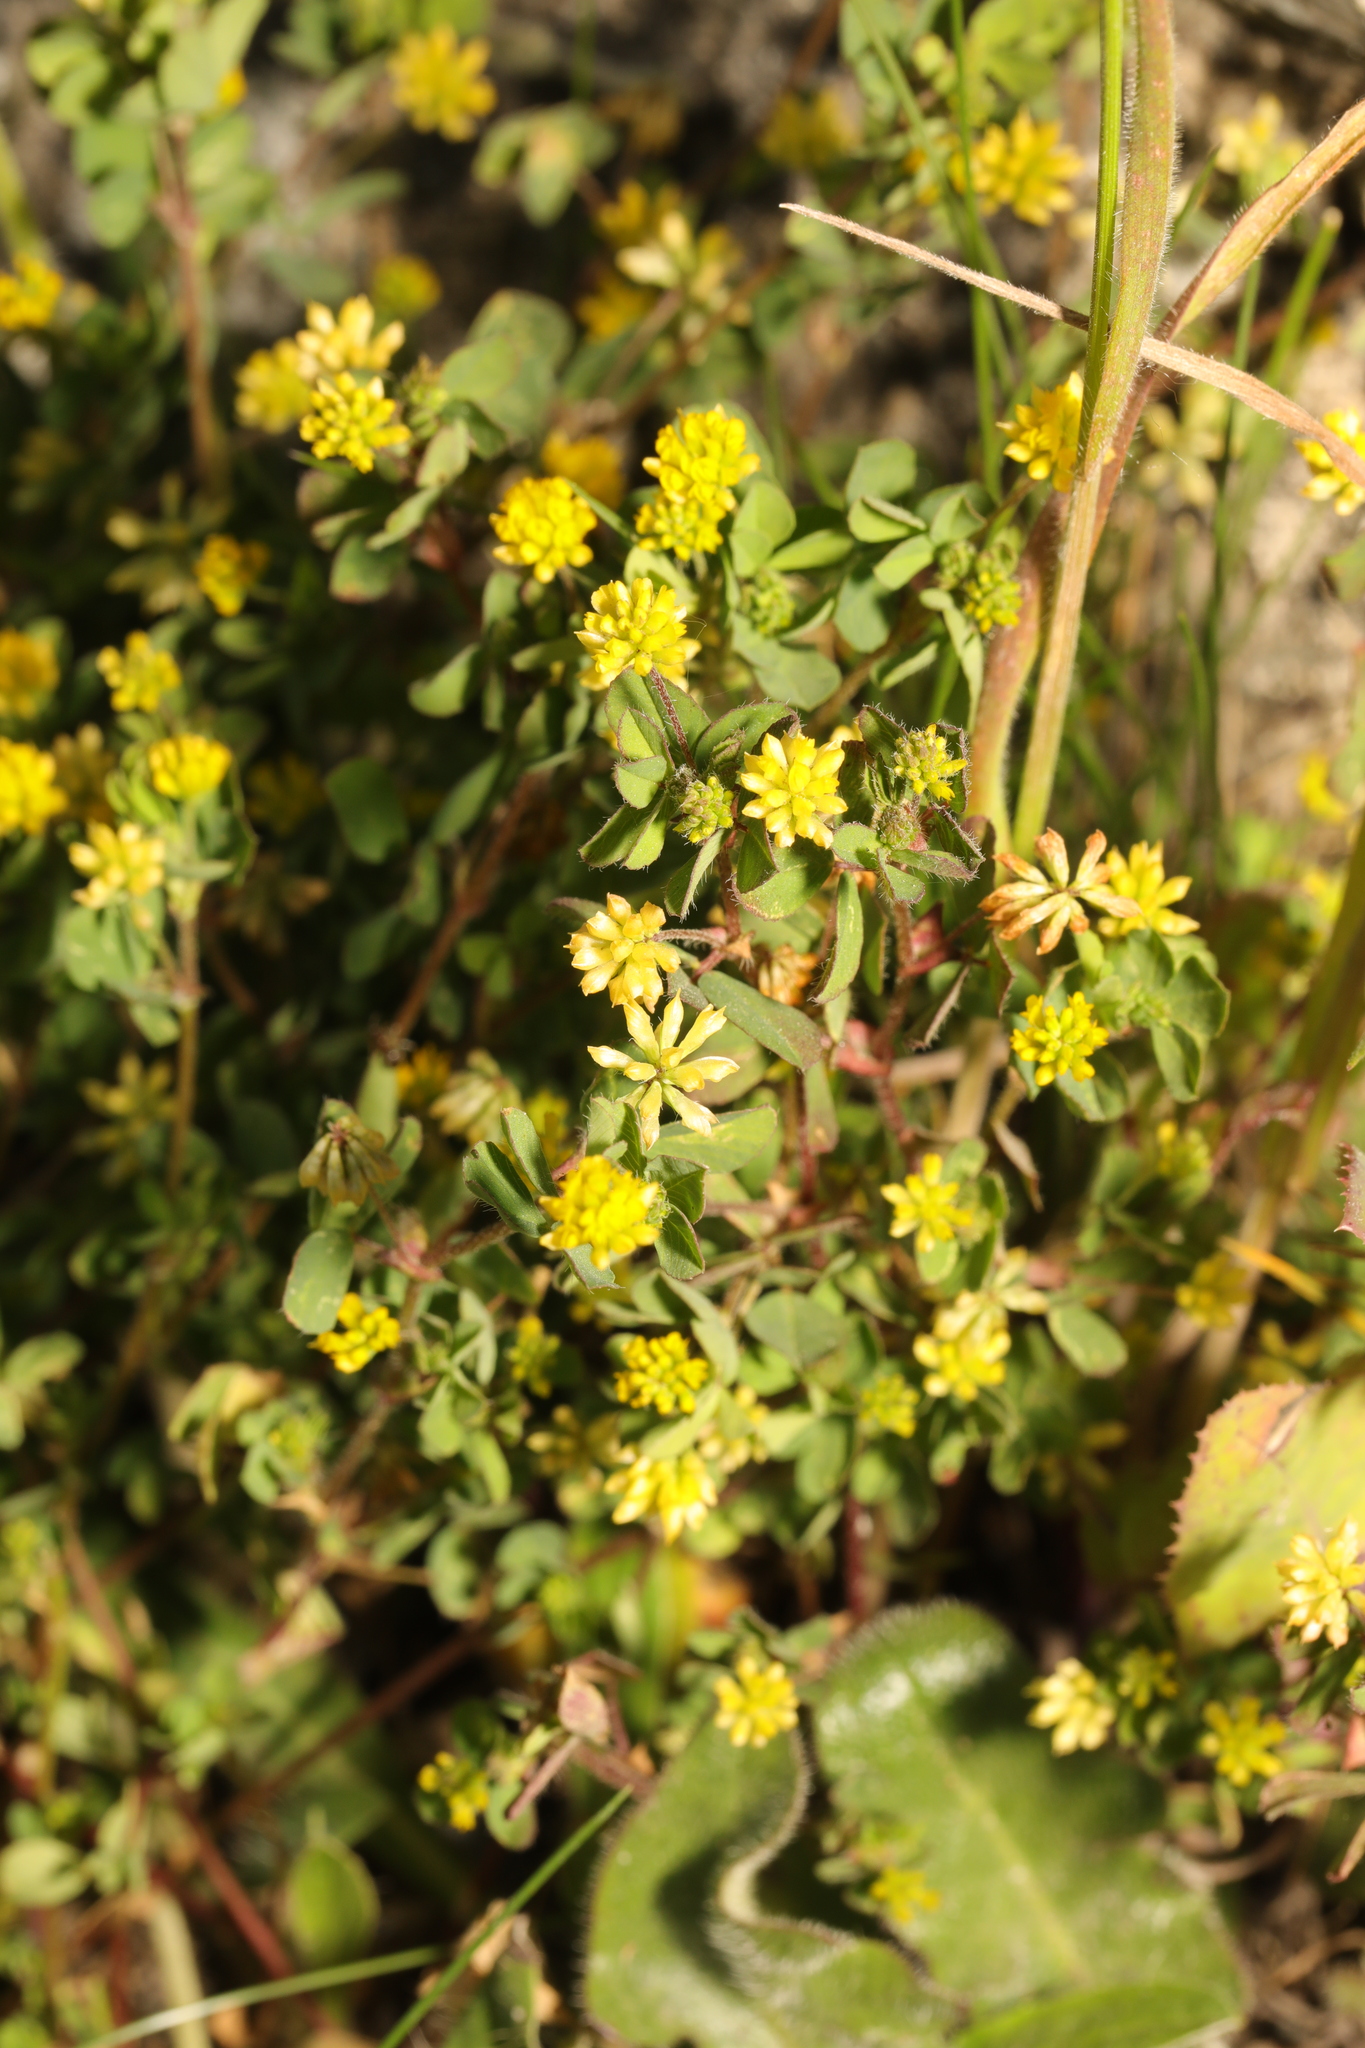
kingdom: Plantae
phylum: Tracheophyta
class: Magnoliopsida
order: Fabales
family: Fabaceae
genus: Trifolium
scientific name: Trifolium dubium
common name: Suckling clover
